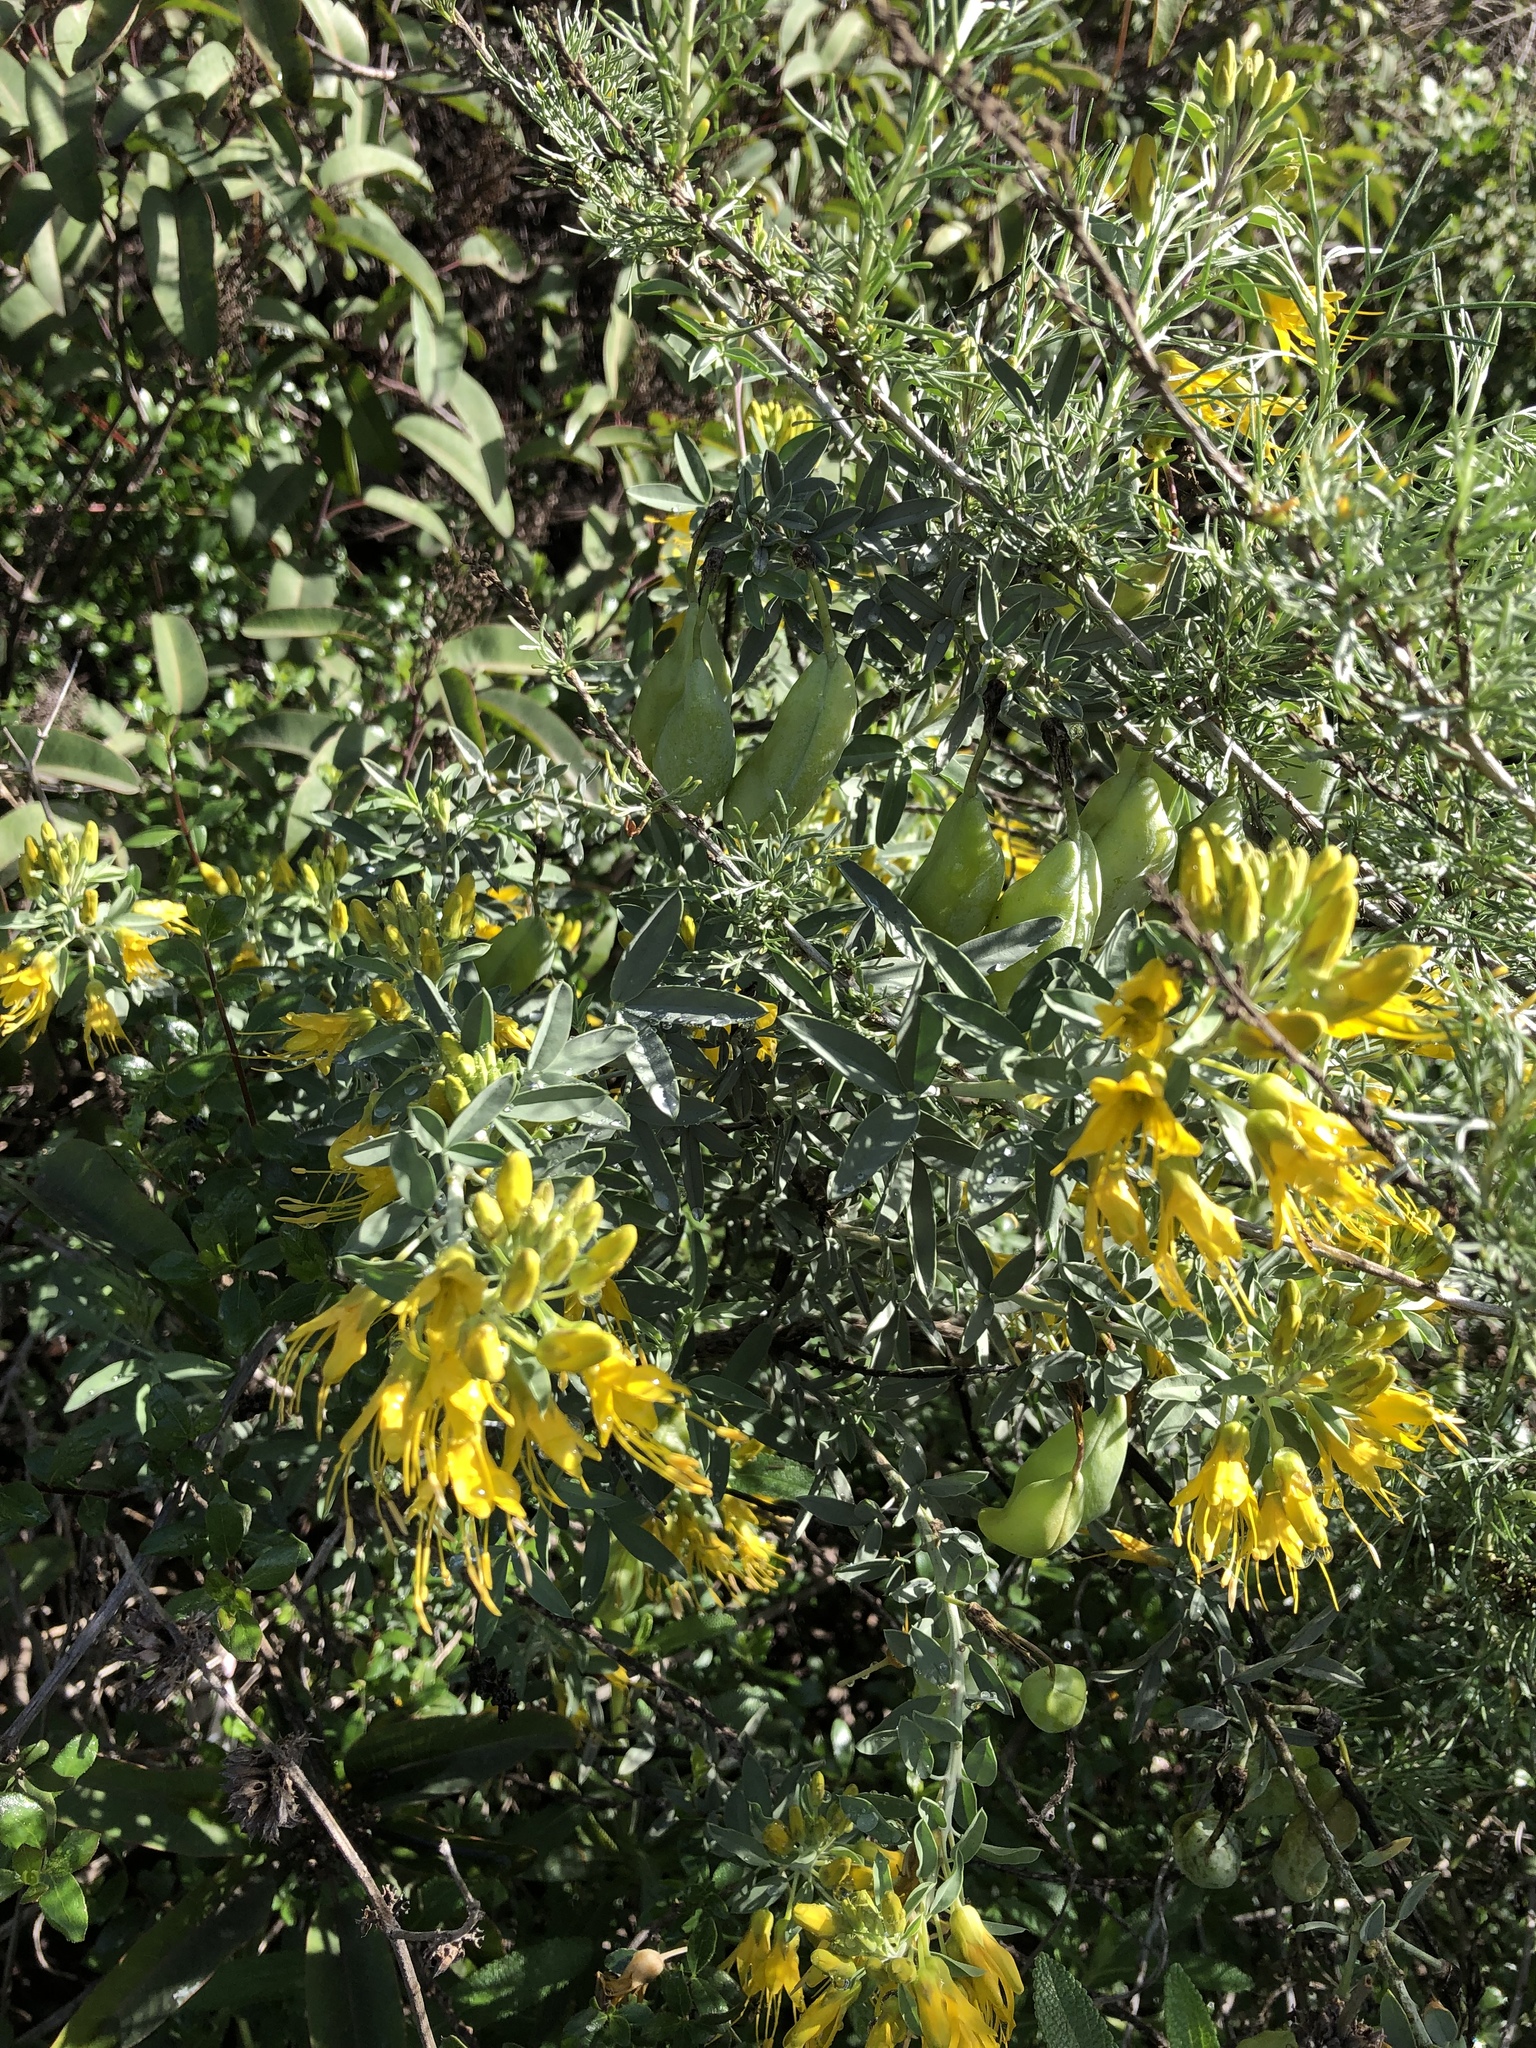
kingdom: Plantae
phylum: Tracheophyta
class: Magnoliopsida
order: Brassicales
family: Cleomaceae
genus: Cleomella
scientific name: Cleomella arborea
